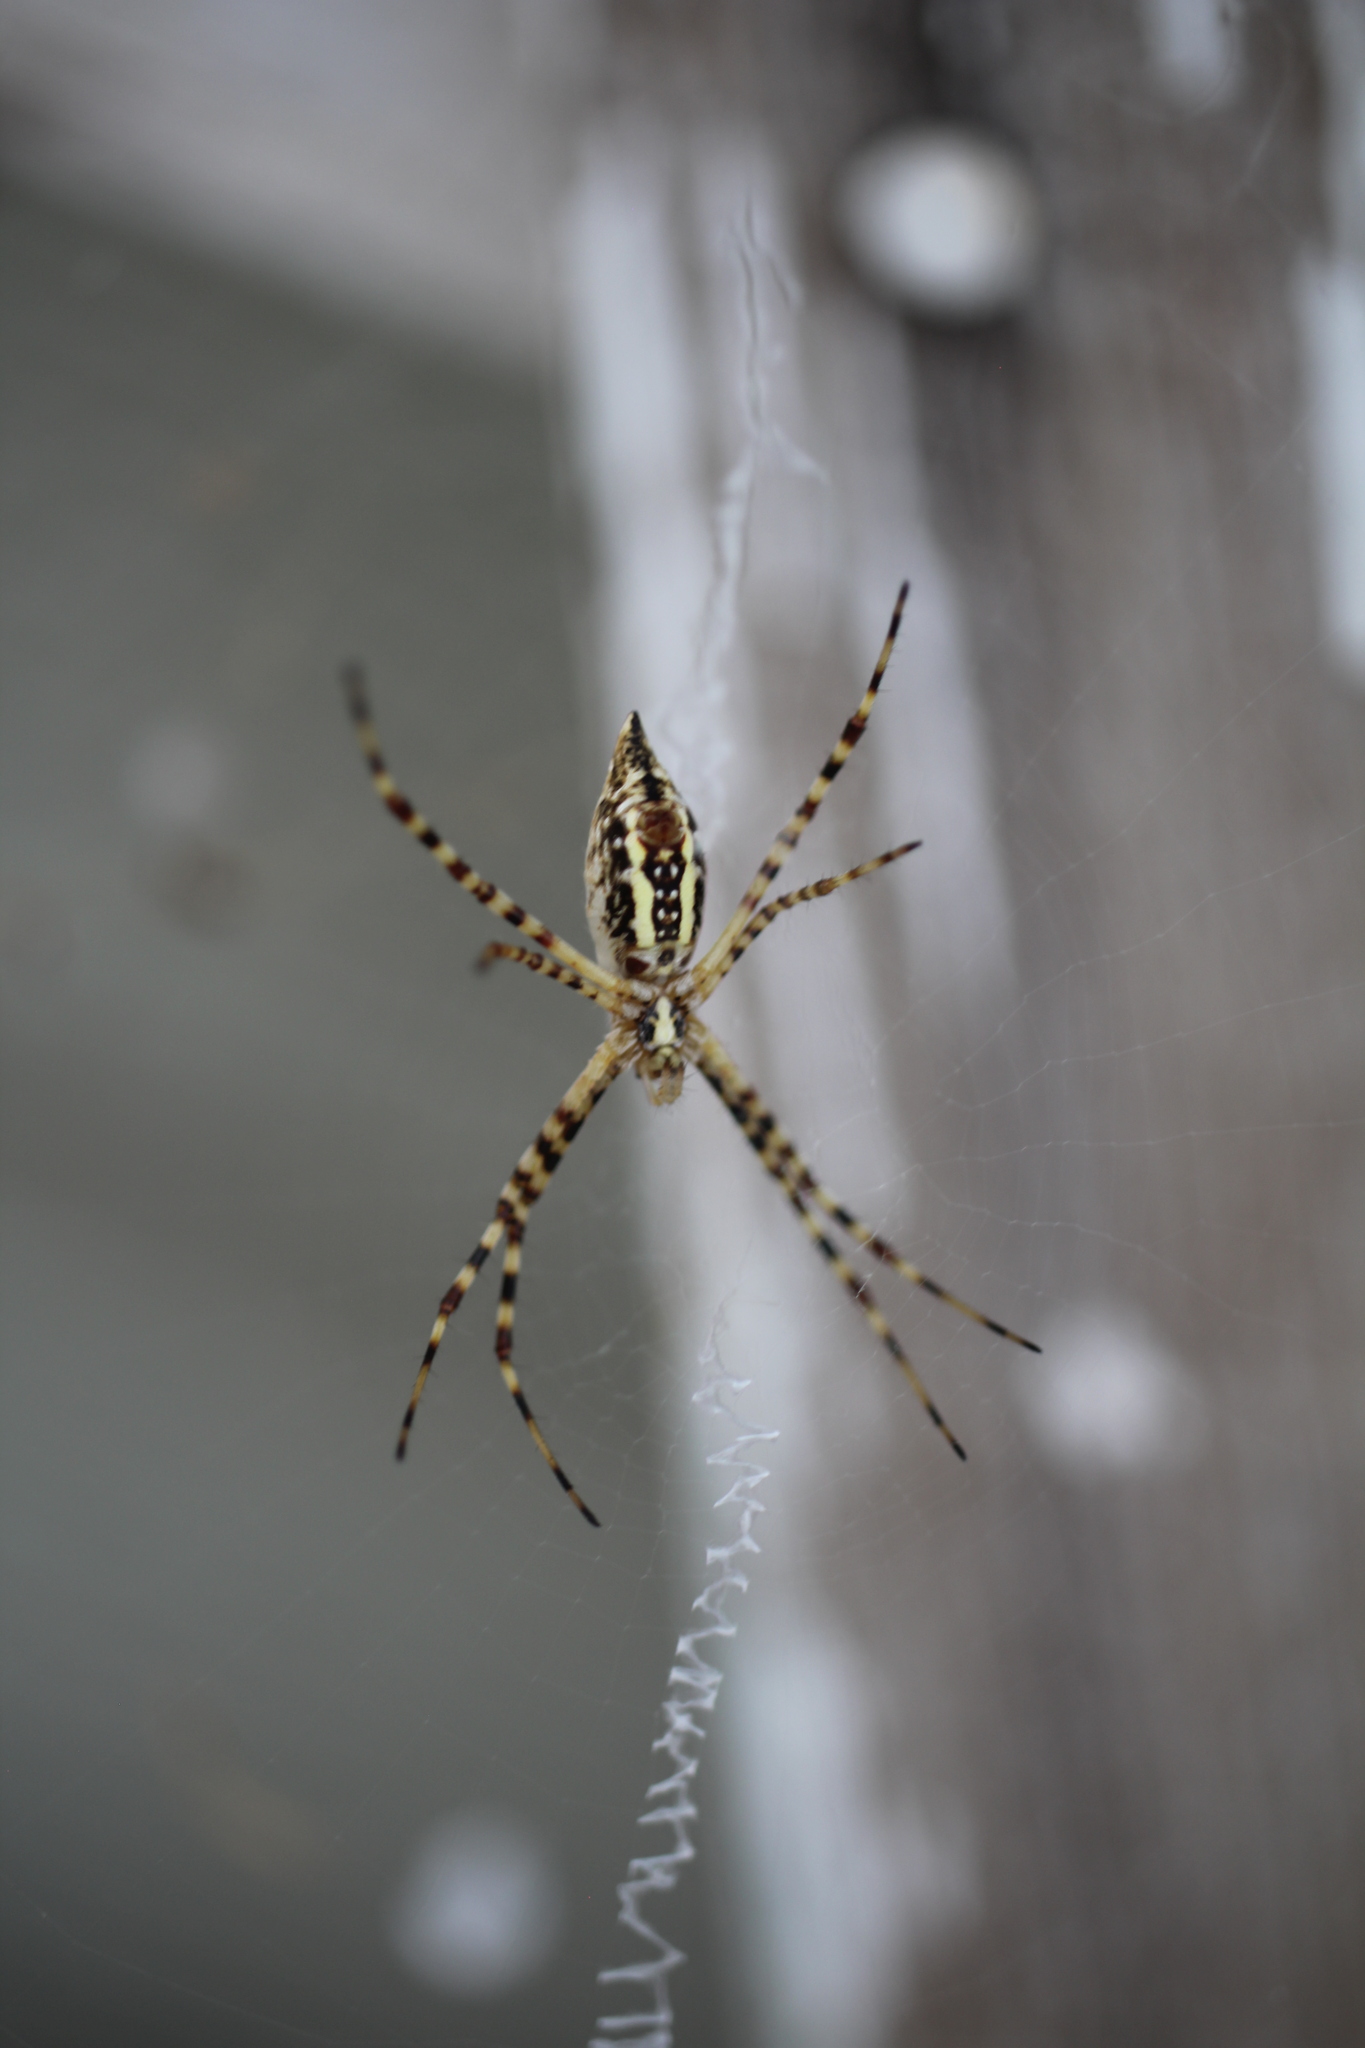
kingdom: Animalia
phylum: Arthropoda
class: Arachnida
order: Araneae
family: Araneidae
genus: Argiope
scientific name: Argiope trifasciata
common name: Banded garden spider
